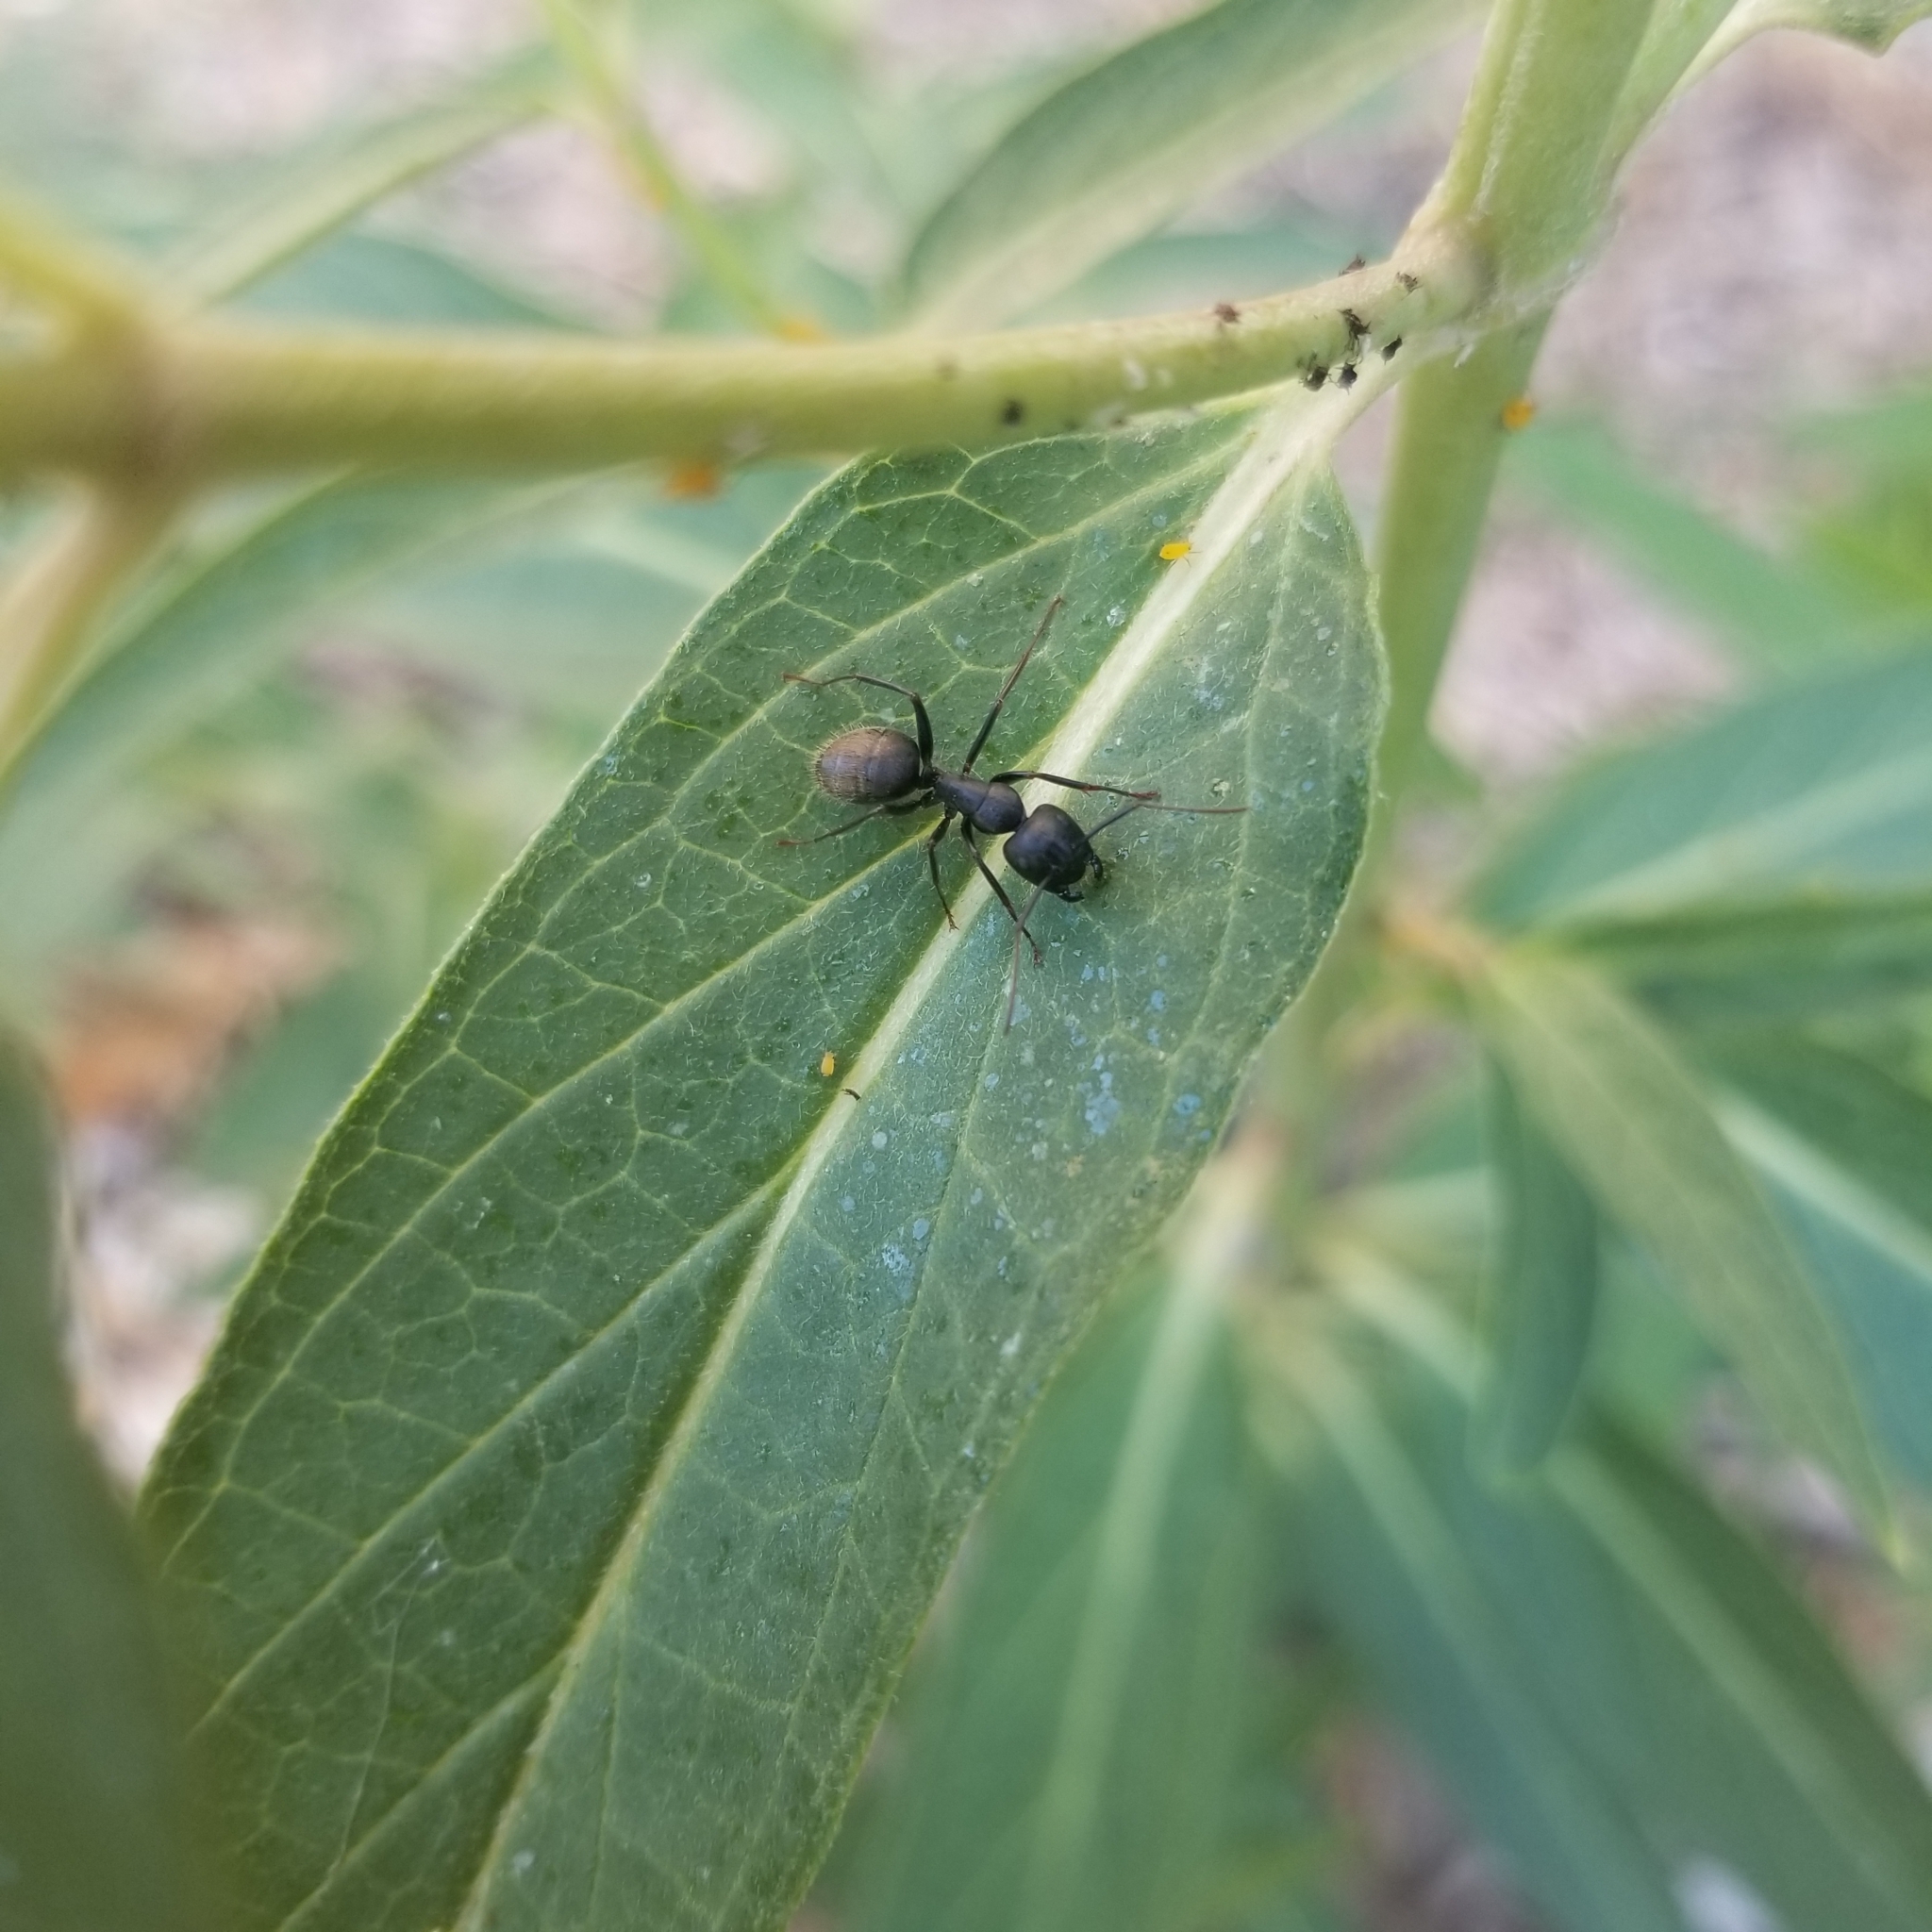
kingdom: Animalia
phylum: Arthropoda
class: Insecta
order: Hymenoptera
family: Formicidae
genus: Camponotus
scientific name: Camponotus pennsylvanicus
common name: Black carpenter ant
